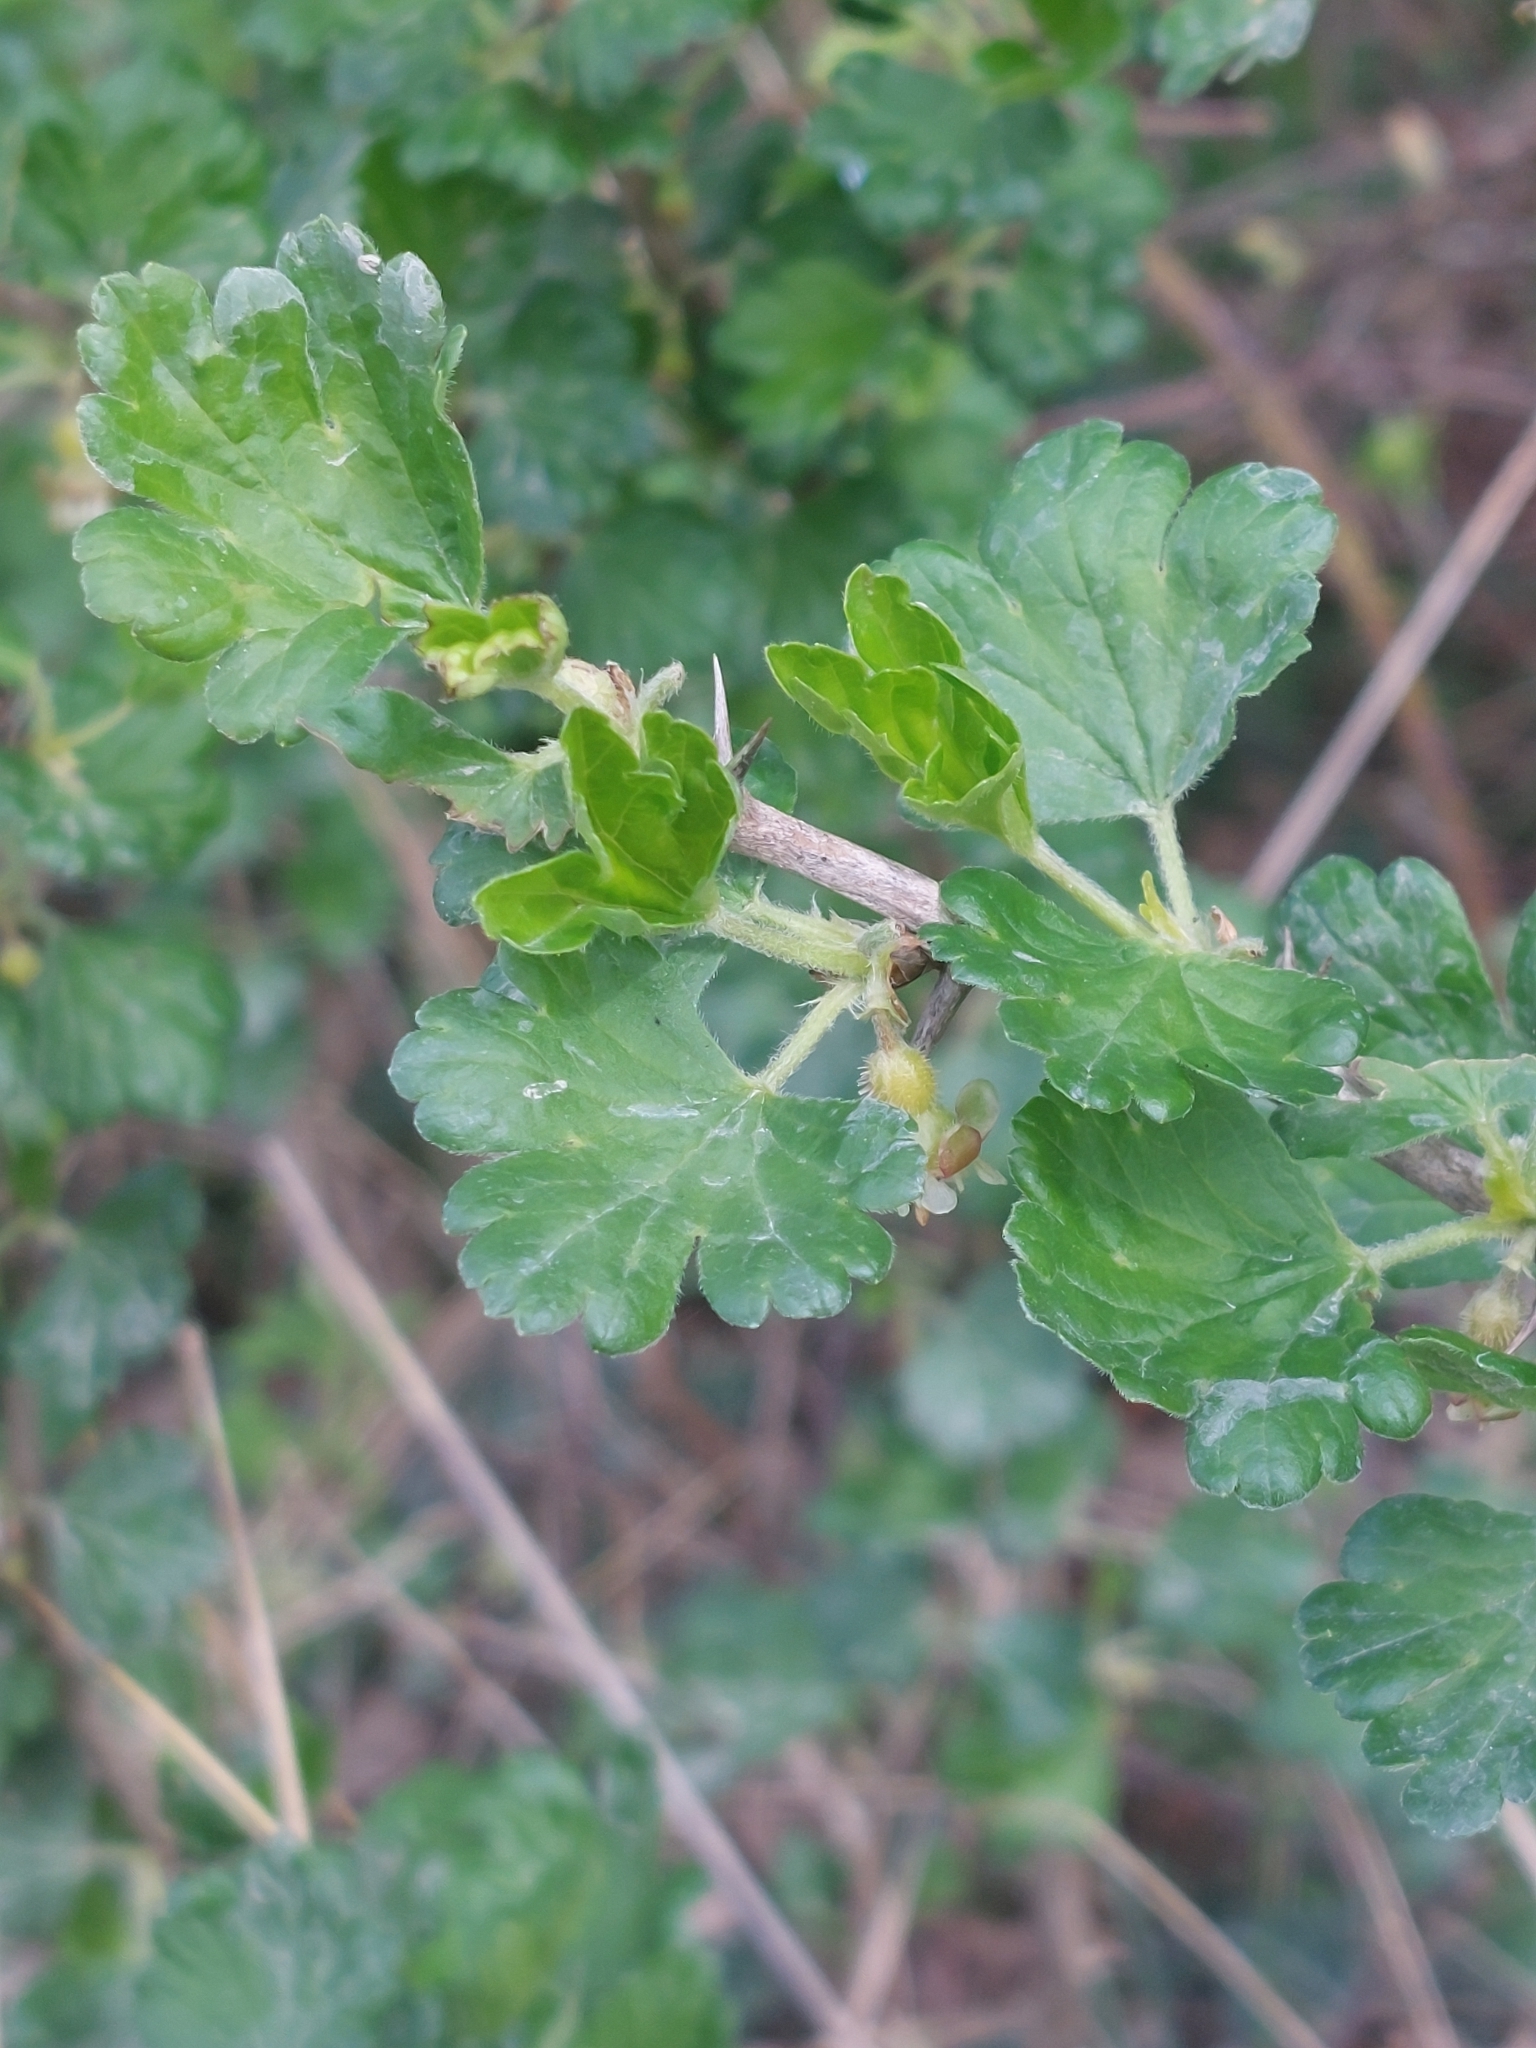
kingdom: Plantae
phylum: Tracheophyta
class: Magnoliopsida
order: Saxifragales
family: Grossulariaceae
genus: Ribes
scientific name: Ribes uva-crispa
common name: Gooseberry
